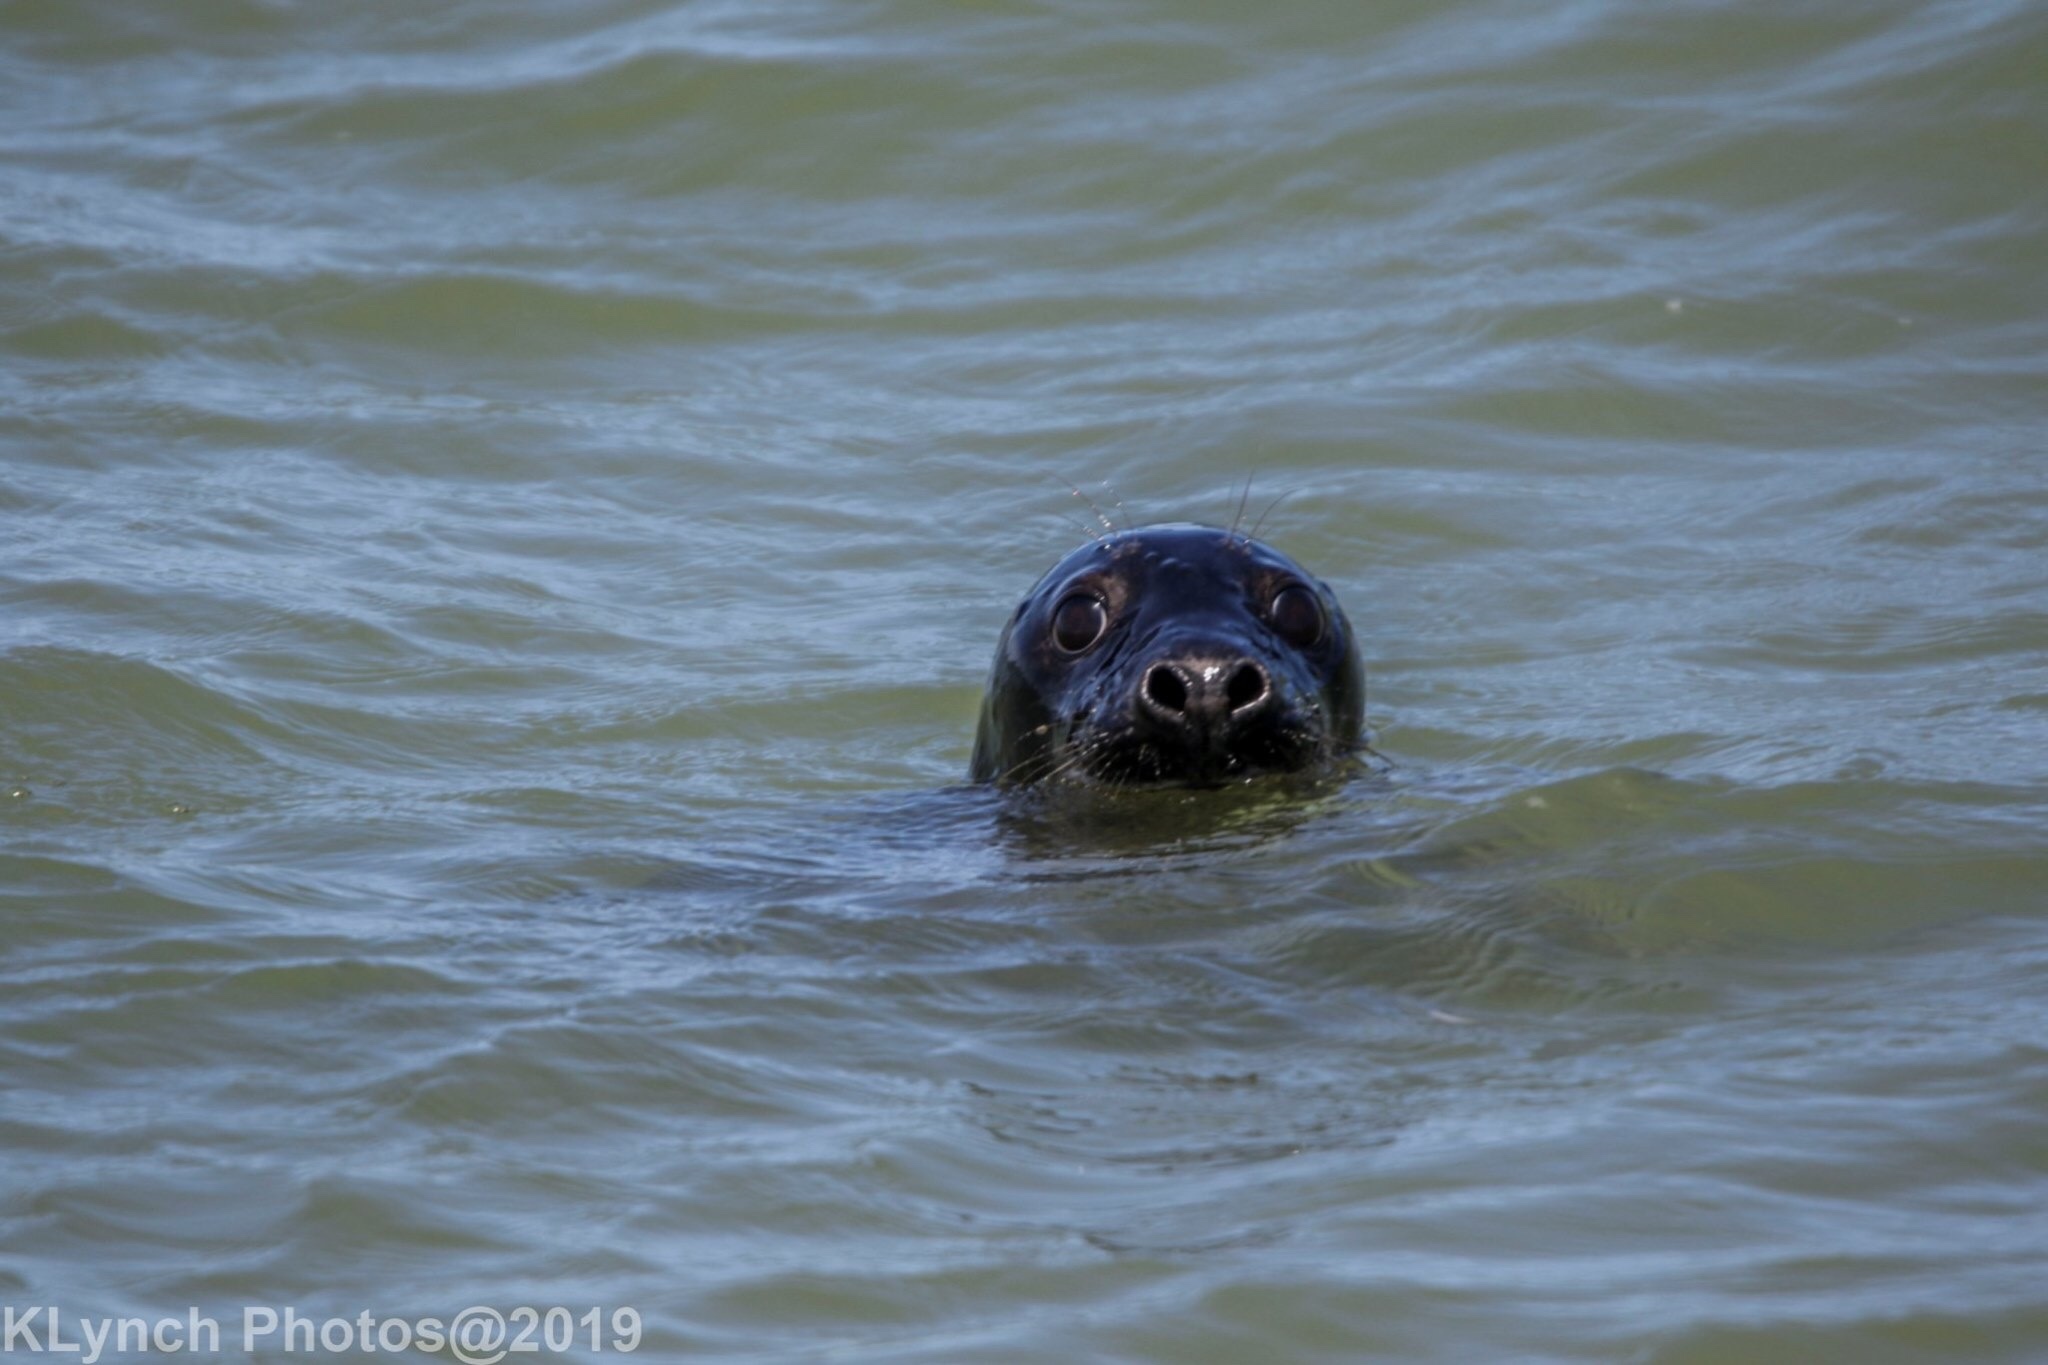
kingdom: Animalia
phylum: Chordata
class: Mammalia
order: Carnivora
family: Phocidae
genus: Halichoerus
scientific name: Halichoerus grypus
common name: Grey seal
